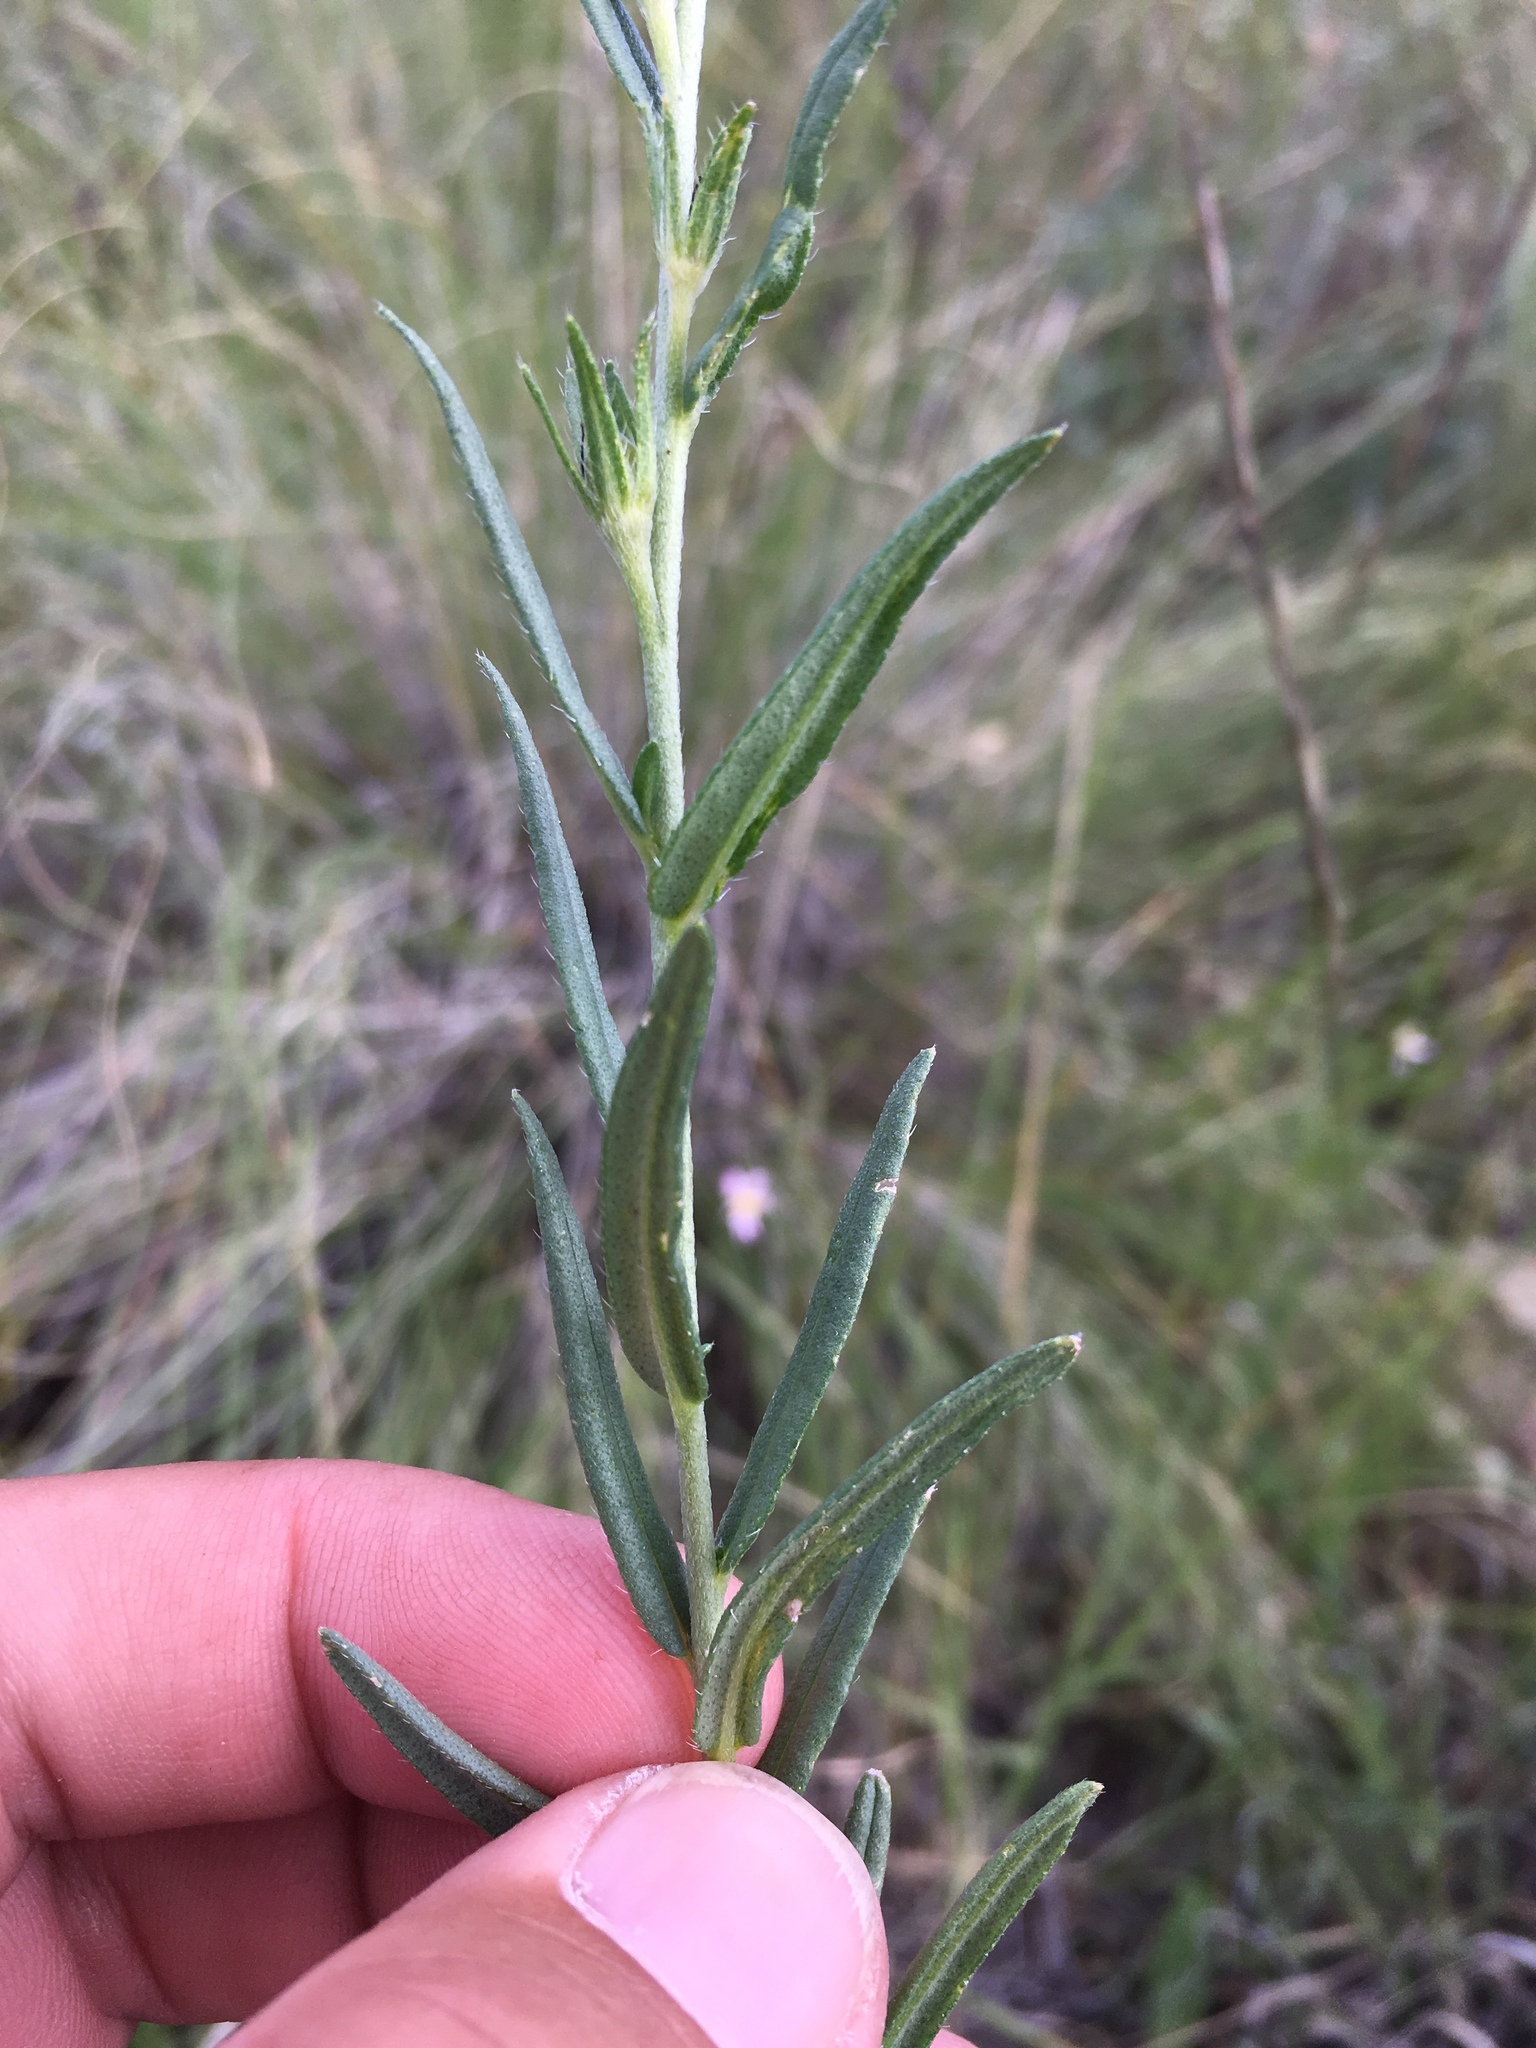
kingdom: Plantae
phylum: Tracheophyta
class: Magnoliopsida
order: Boraginales
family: Boraginaceae
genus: Lithospermum
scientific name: Lithospermum multiflorum
